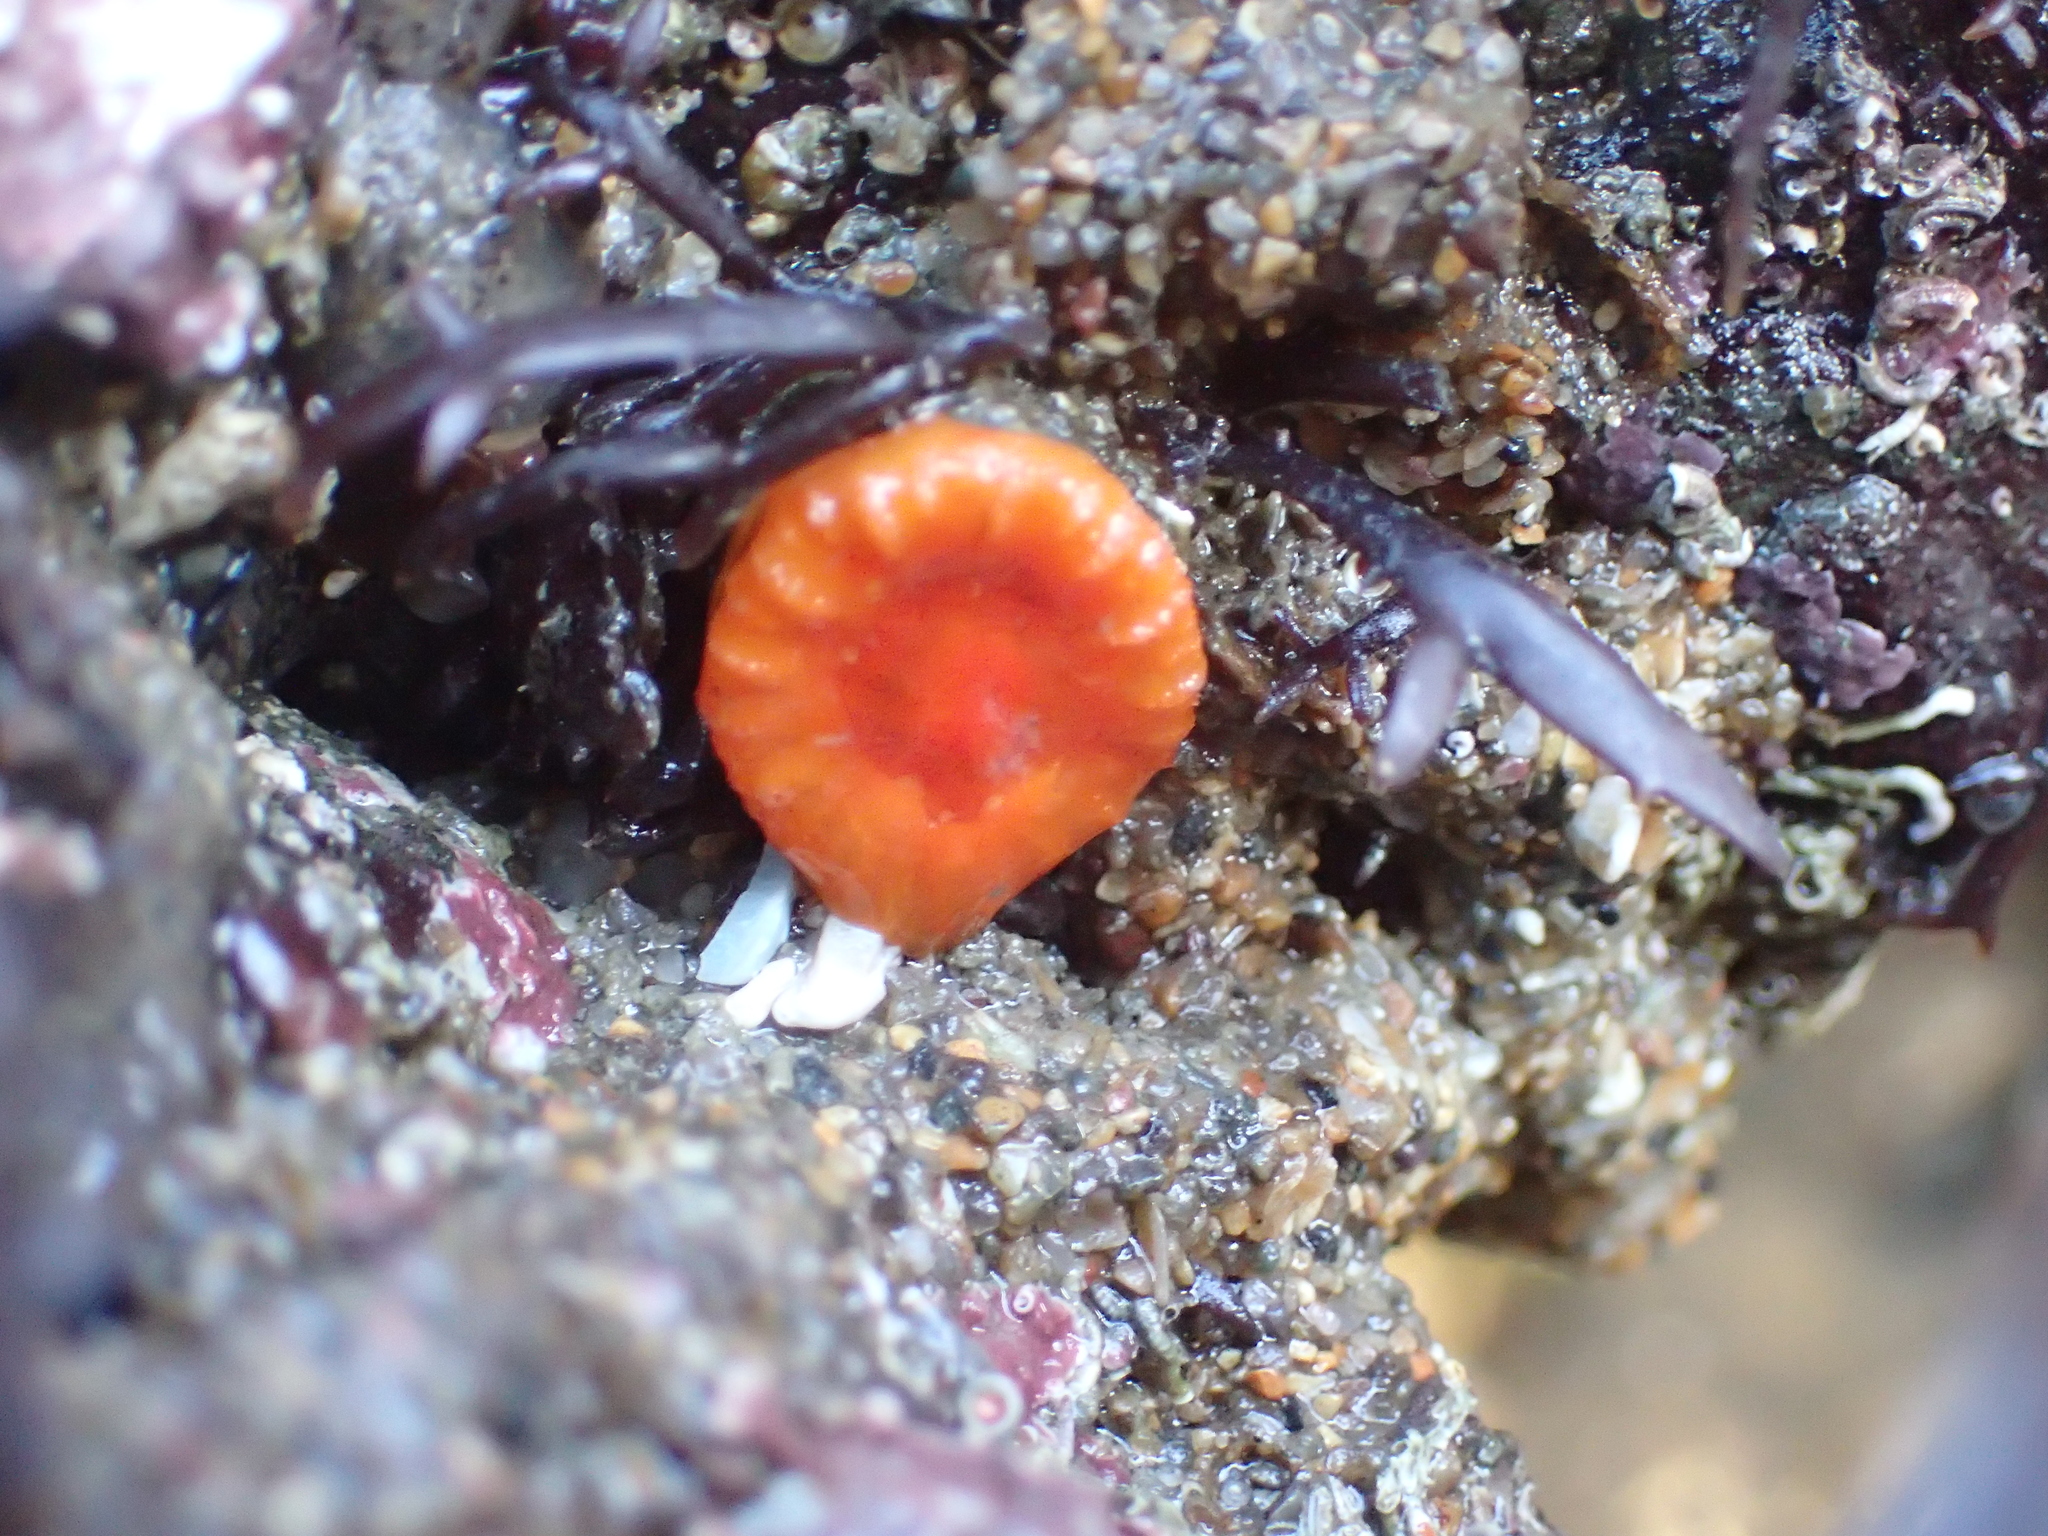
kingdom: Animalia
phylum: Cnidaria
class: Anthozoa
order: Scleractinia
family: Dendrophylliidae
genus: Balanophyllia
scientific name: Balanophyllia elegans
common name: Orange stony coral
